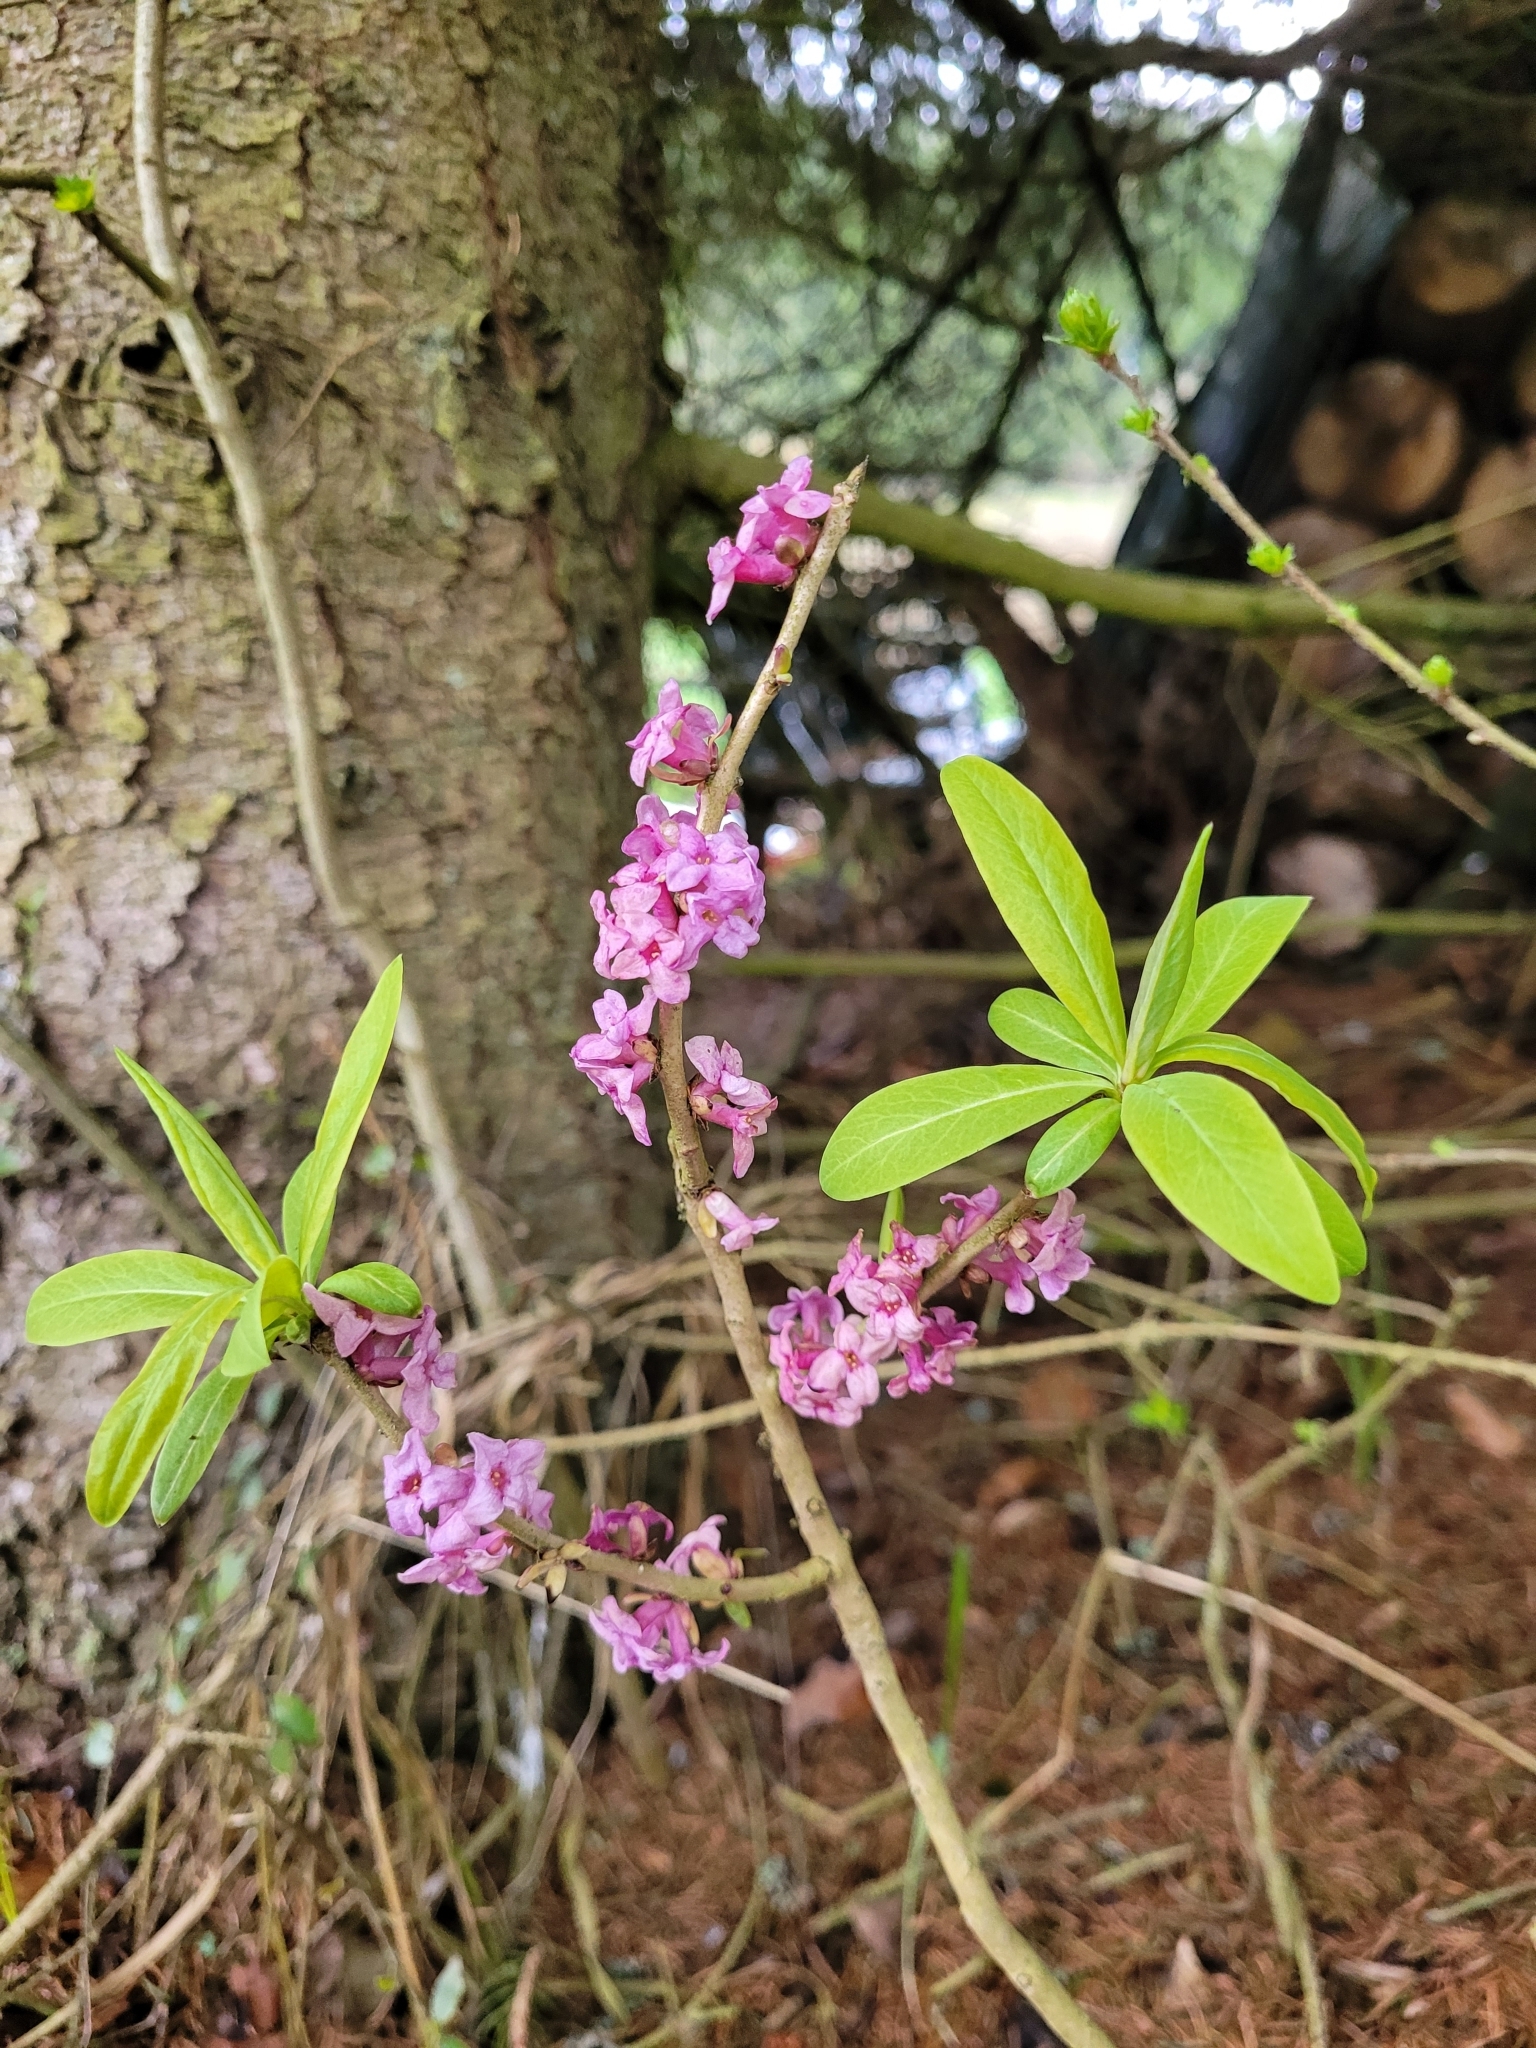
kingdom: Plantae
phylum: Tracheophyta
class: Magnoliopsida
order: Malvales
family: Thymelaeaceae
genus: Daphne
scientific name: Daphne mezereum
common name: Mezereon
